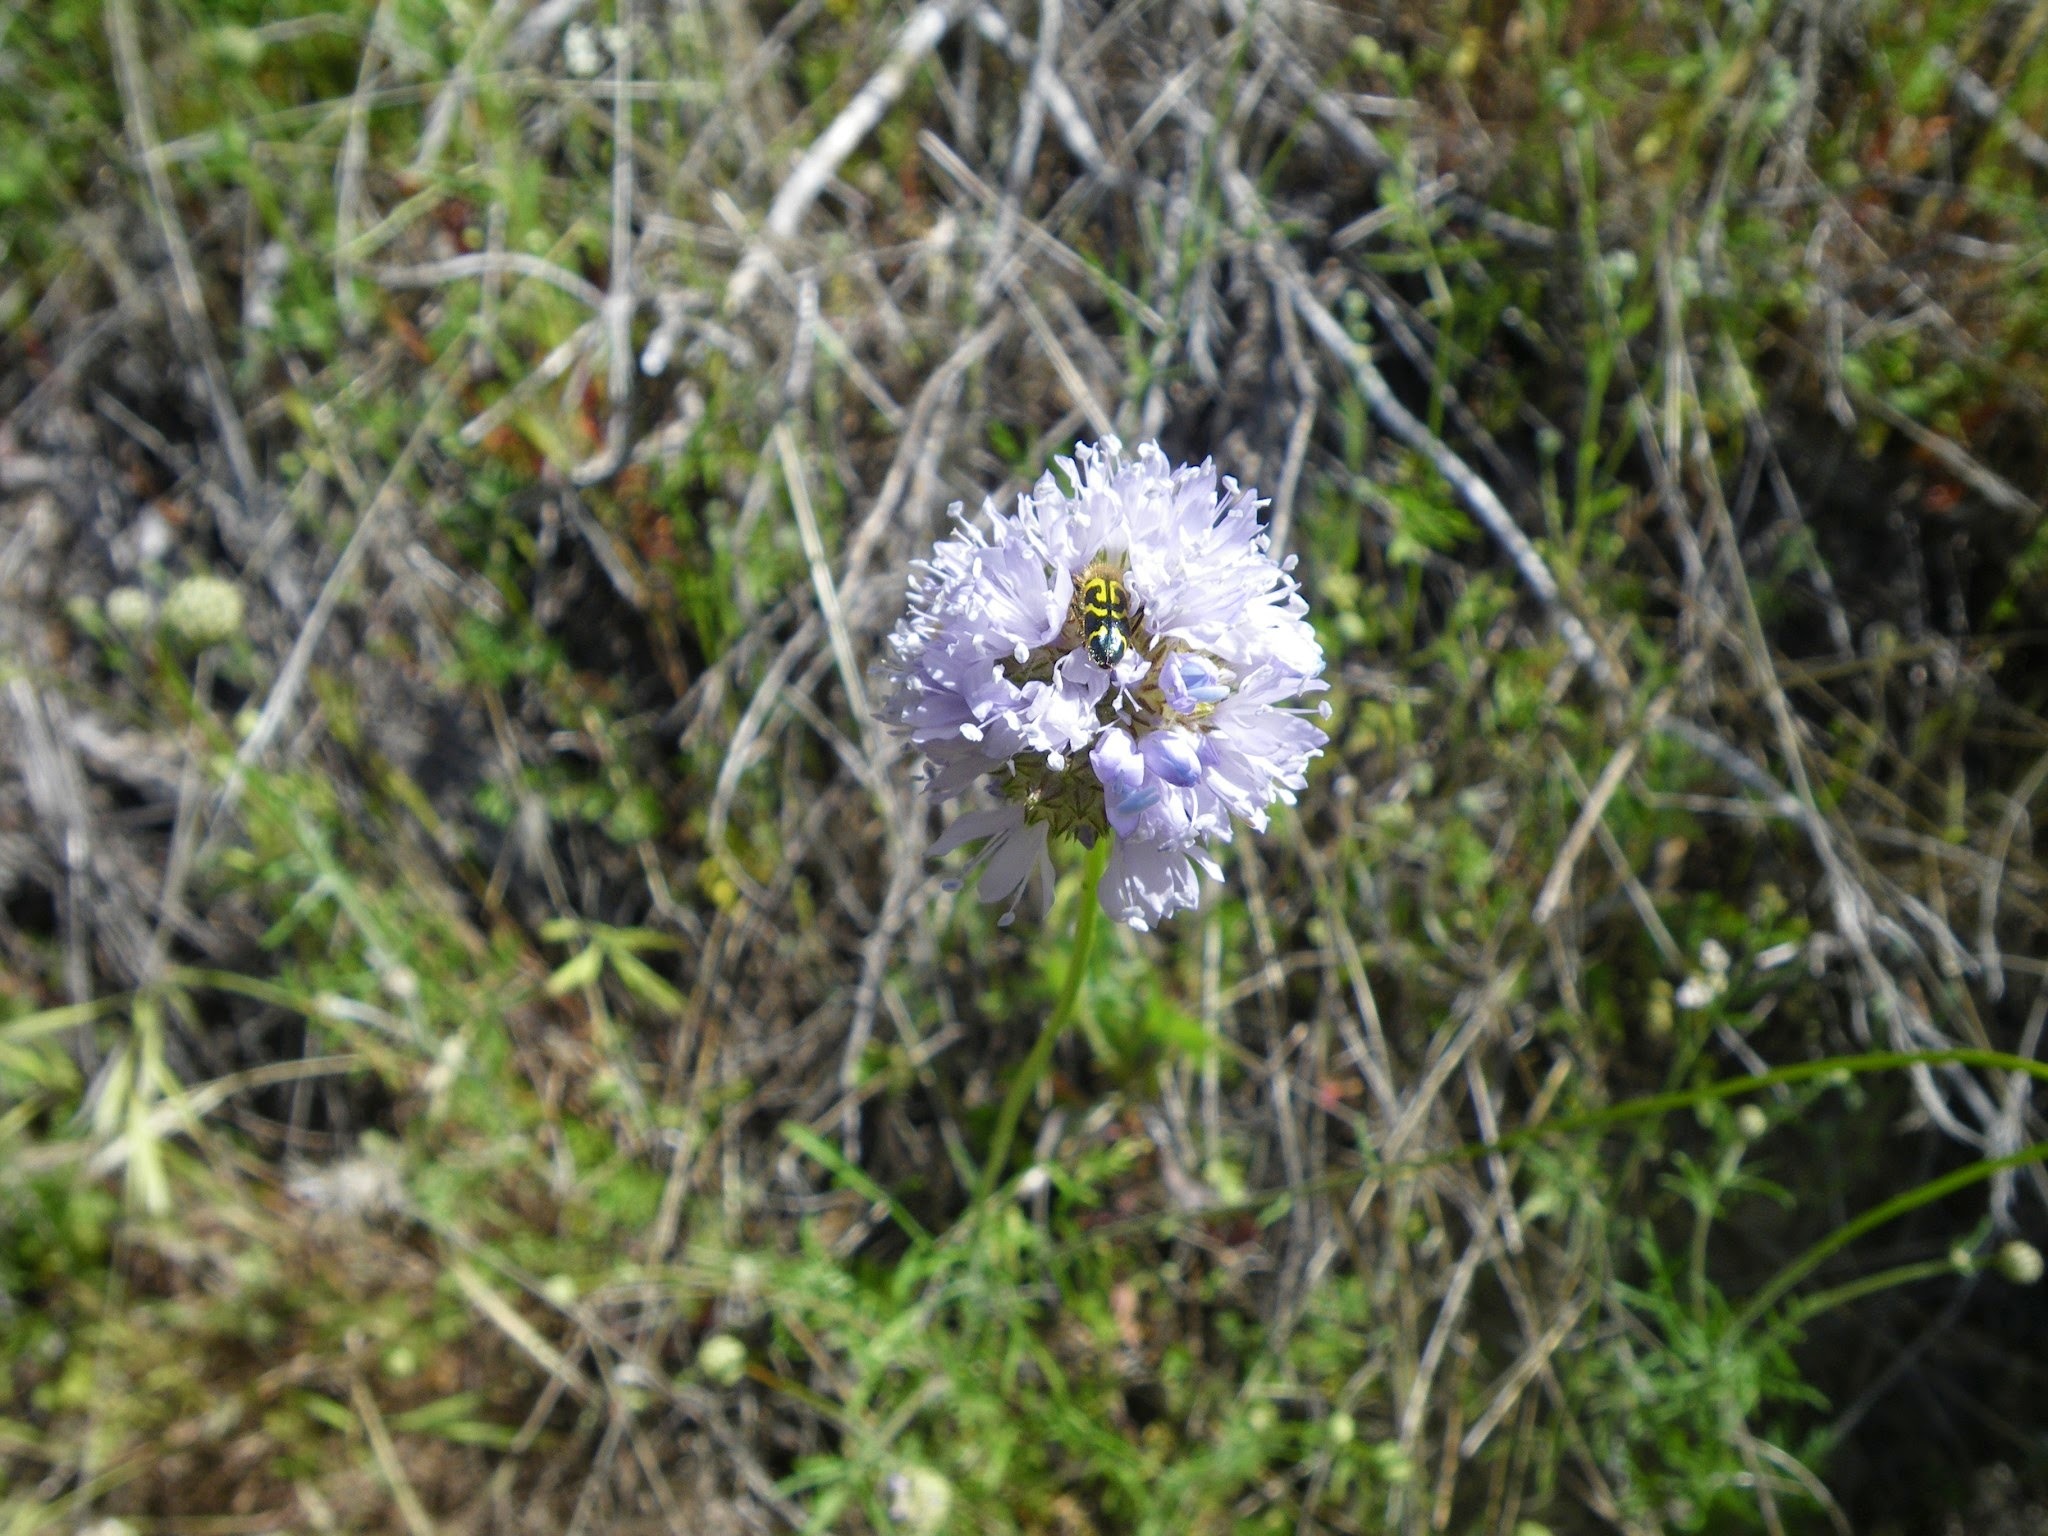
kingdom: Animalia
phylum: Arthropoda
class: Insecta
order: Coleoptera
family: Cleridae
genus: Trichodes
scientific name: Trichodes ornatus
